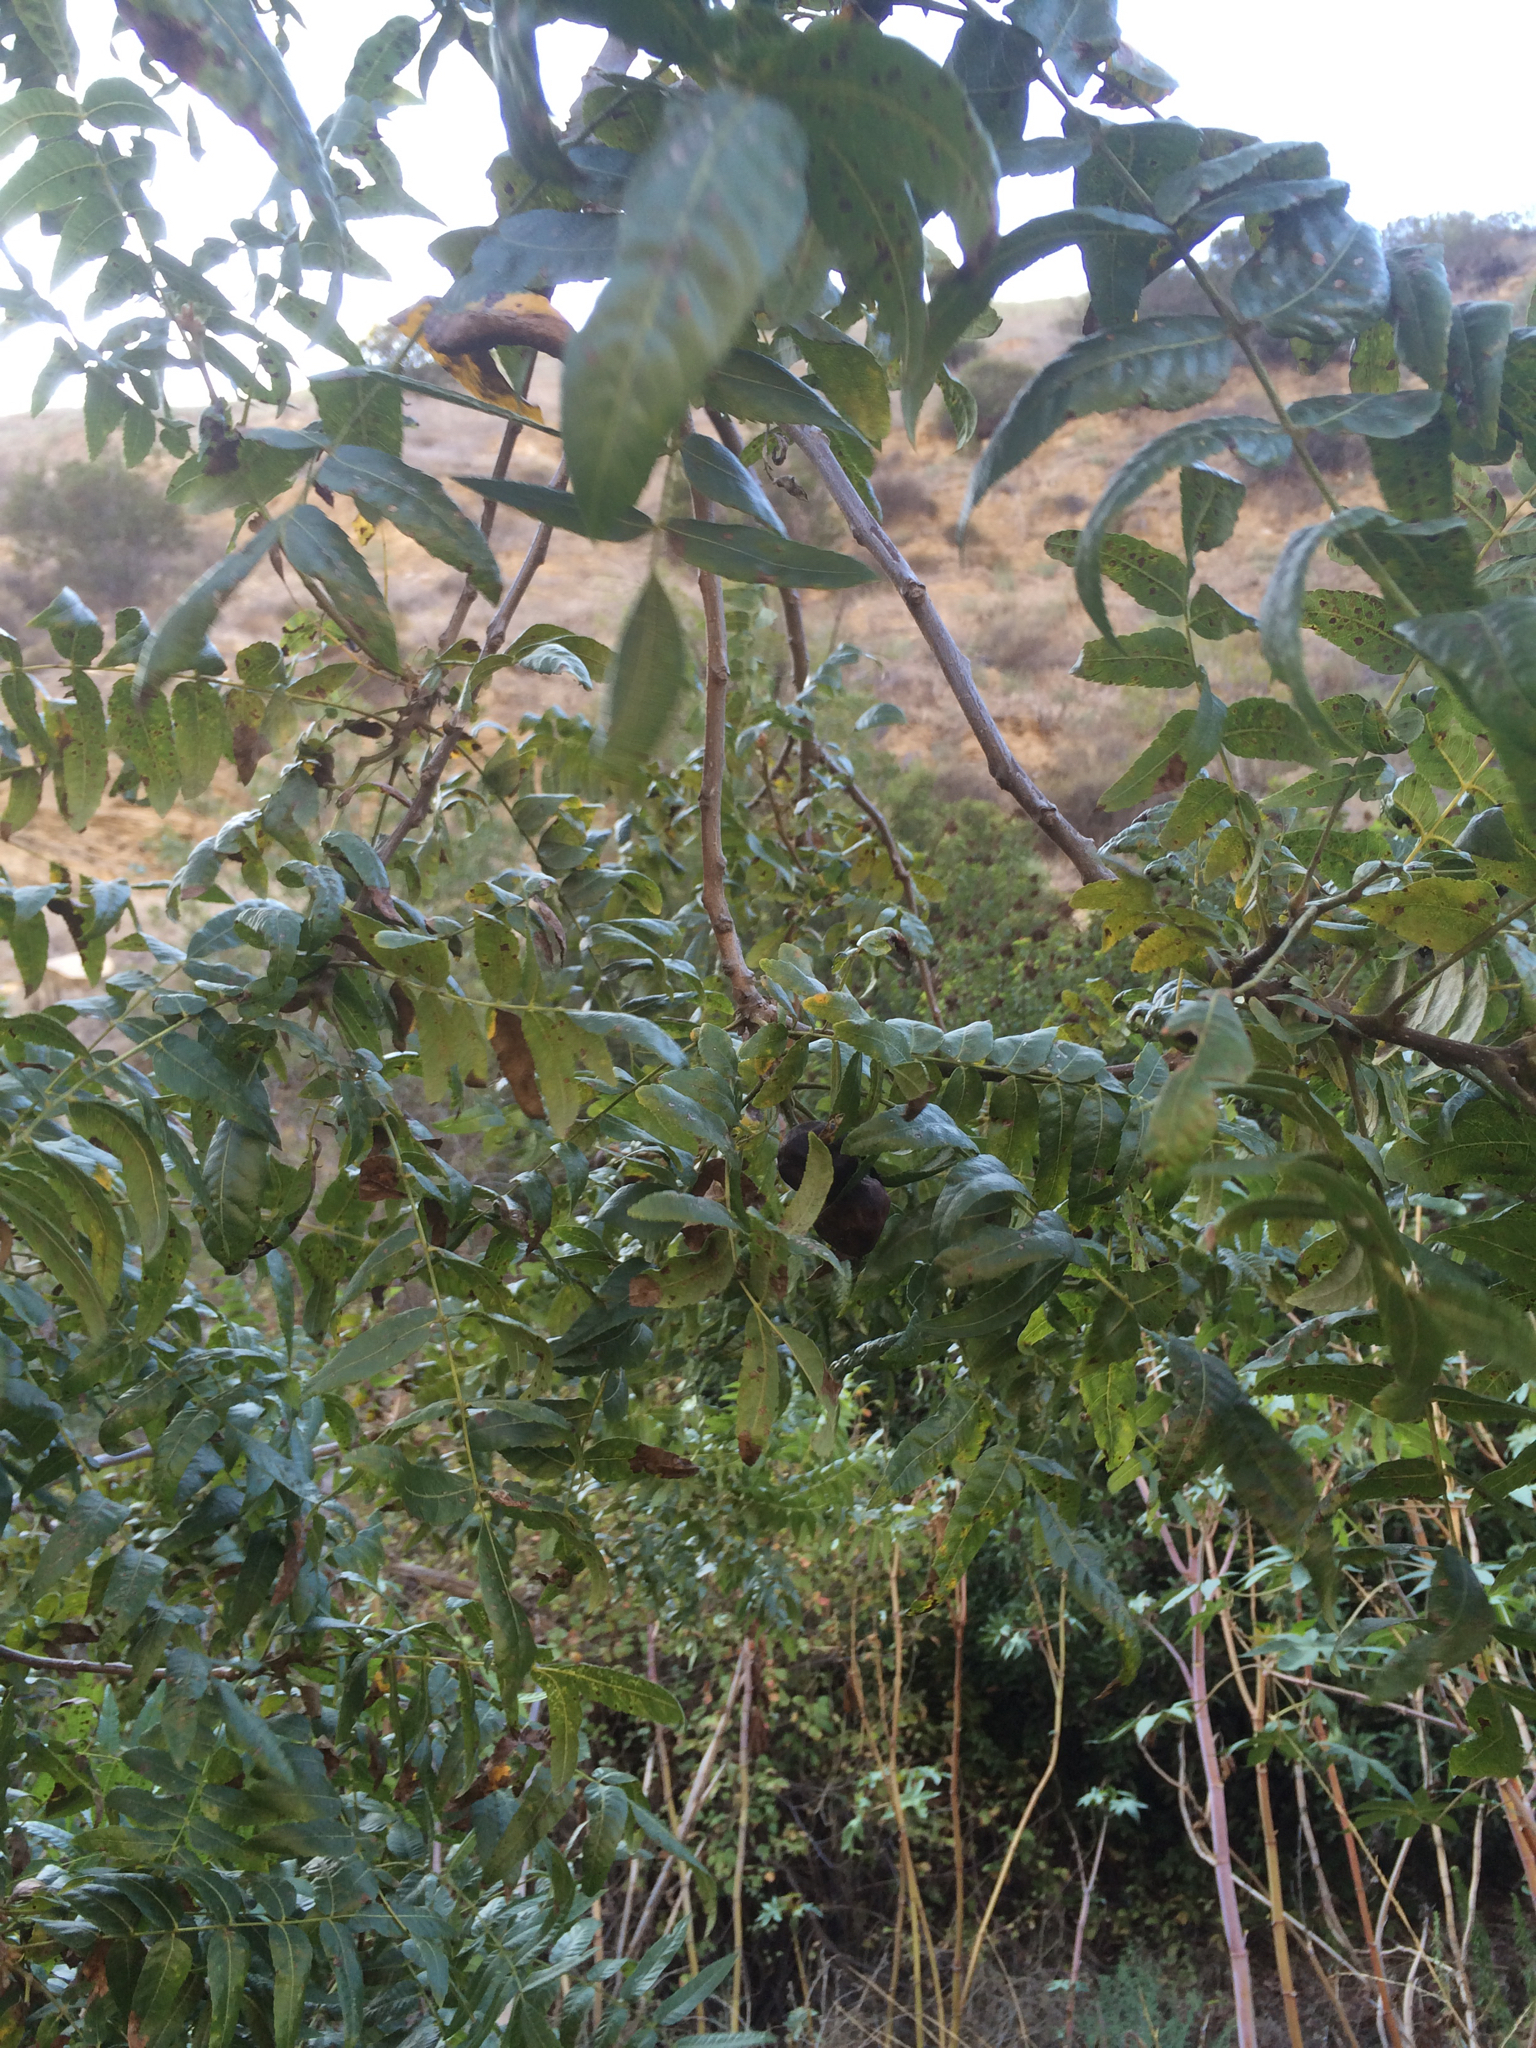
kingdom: Plantae
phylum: Tracheophyta
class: Magnoliopsida
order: Fagales
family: Juglandaceae
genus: Juglans
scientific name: Juglans californica
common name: Southern california black walnut
